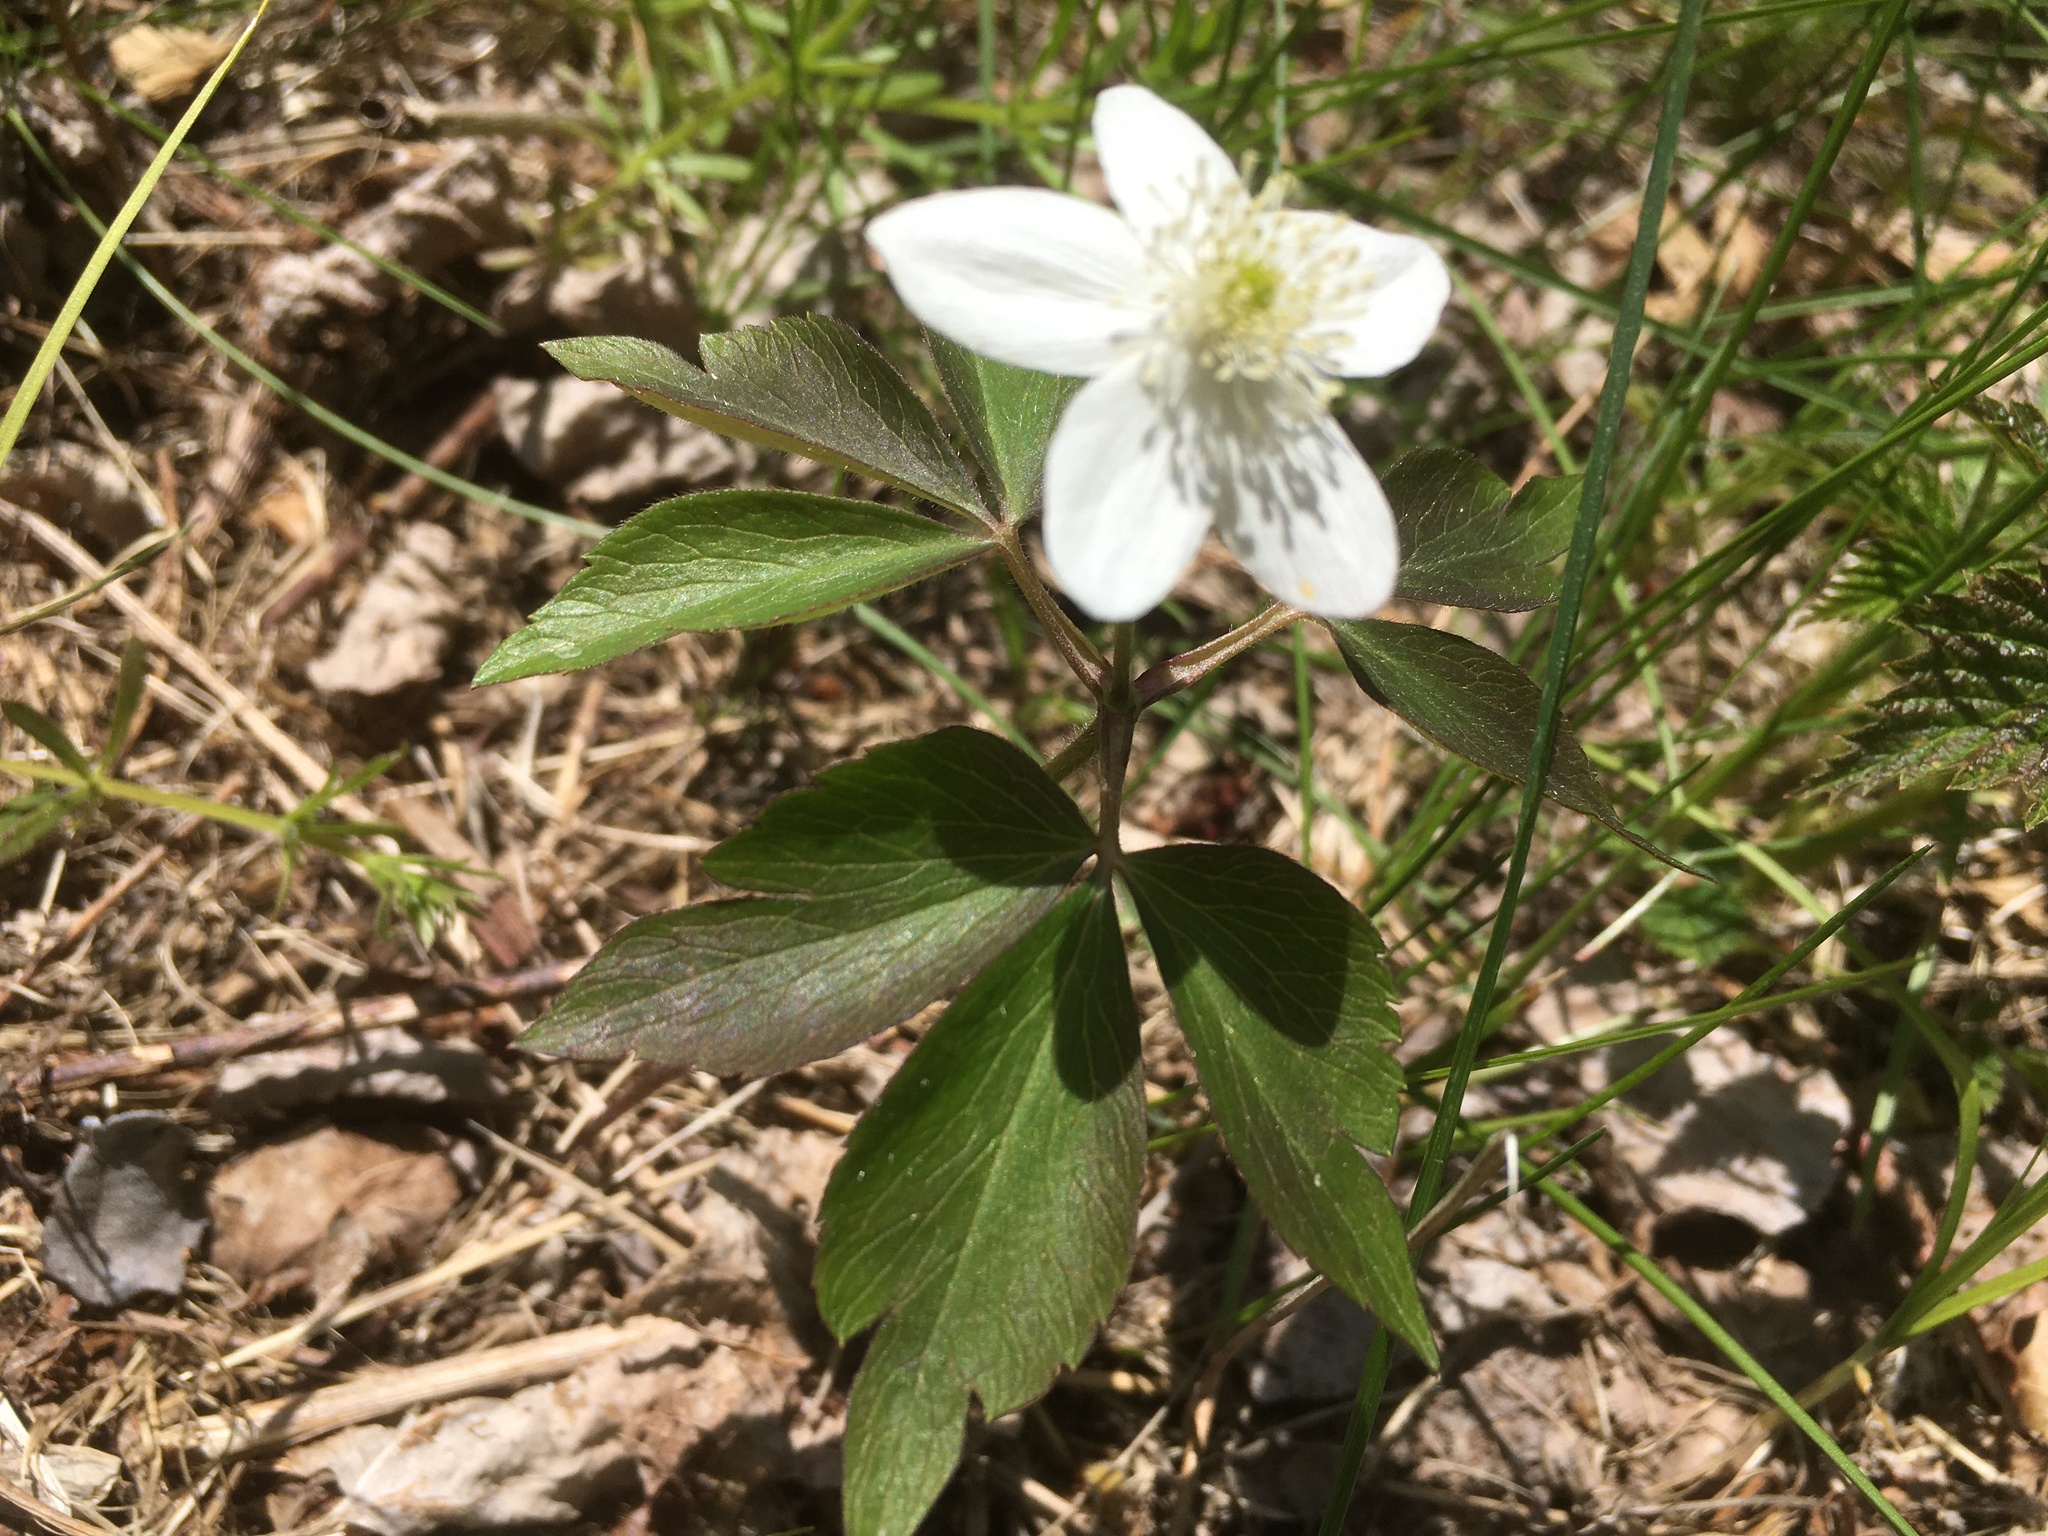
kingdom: Plantae
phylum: Tracheophyta
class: Magnoliopsida
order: Ranunculales
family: Ranunculaceae
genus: Anemone
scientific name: Anemone quinquefolia
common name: Wood anemone
